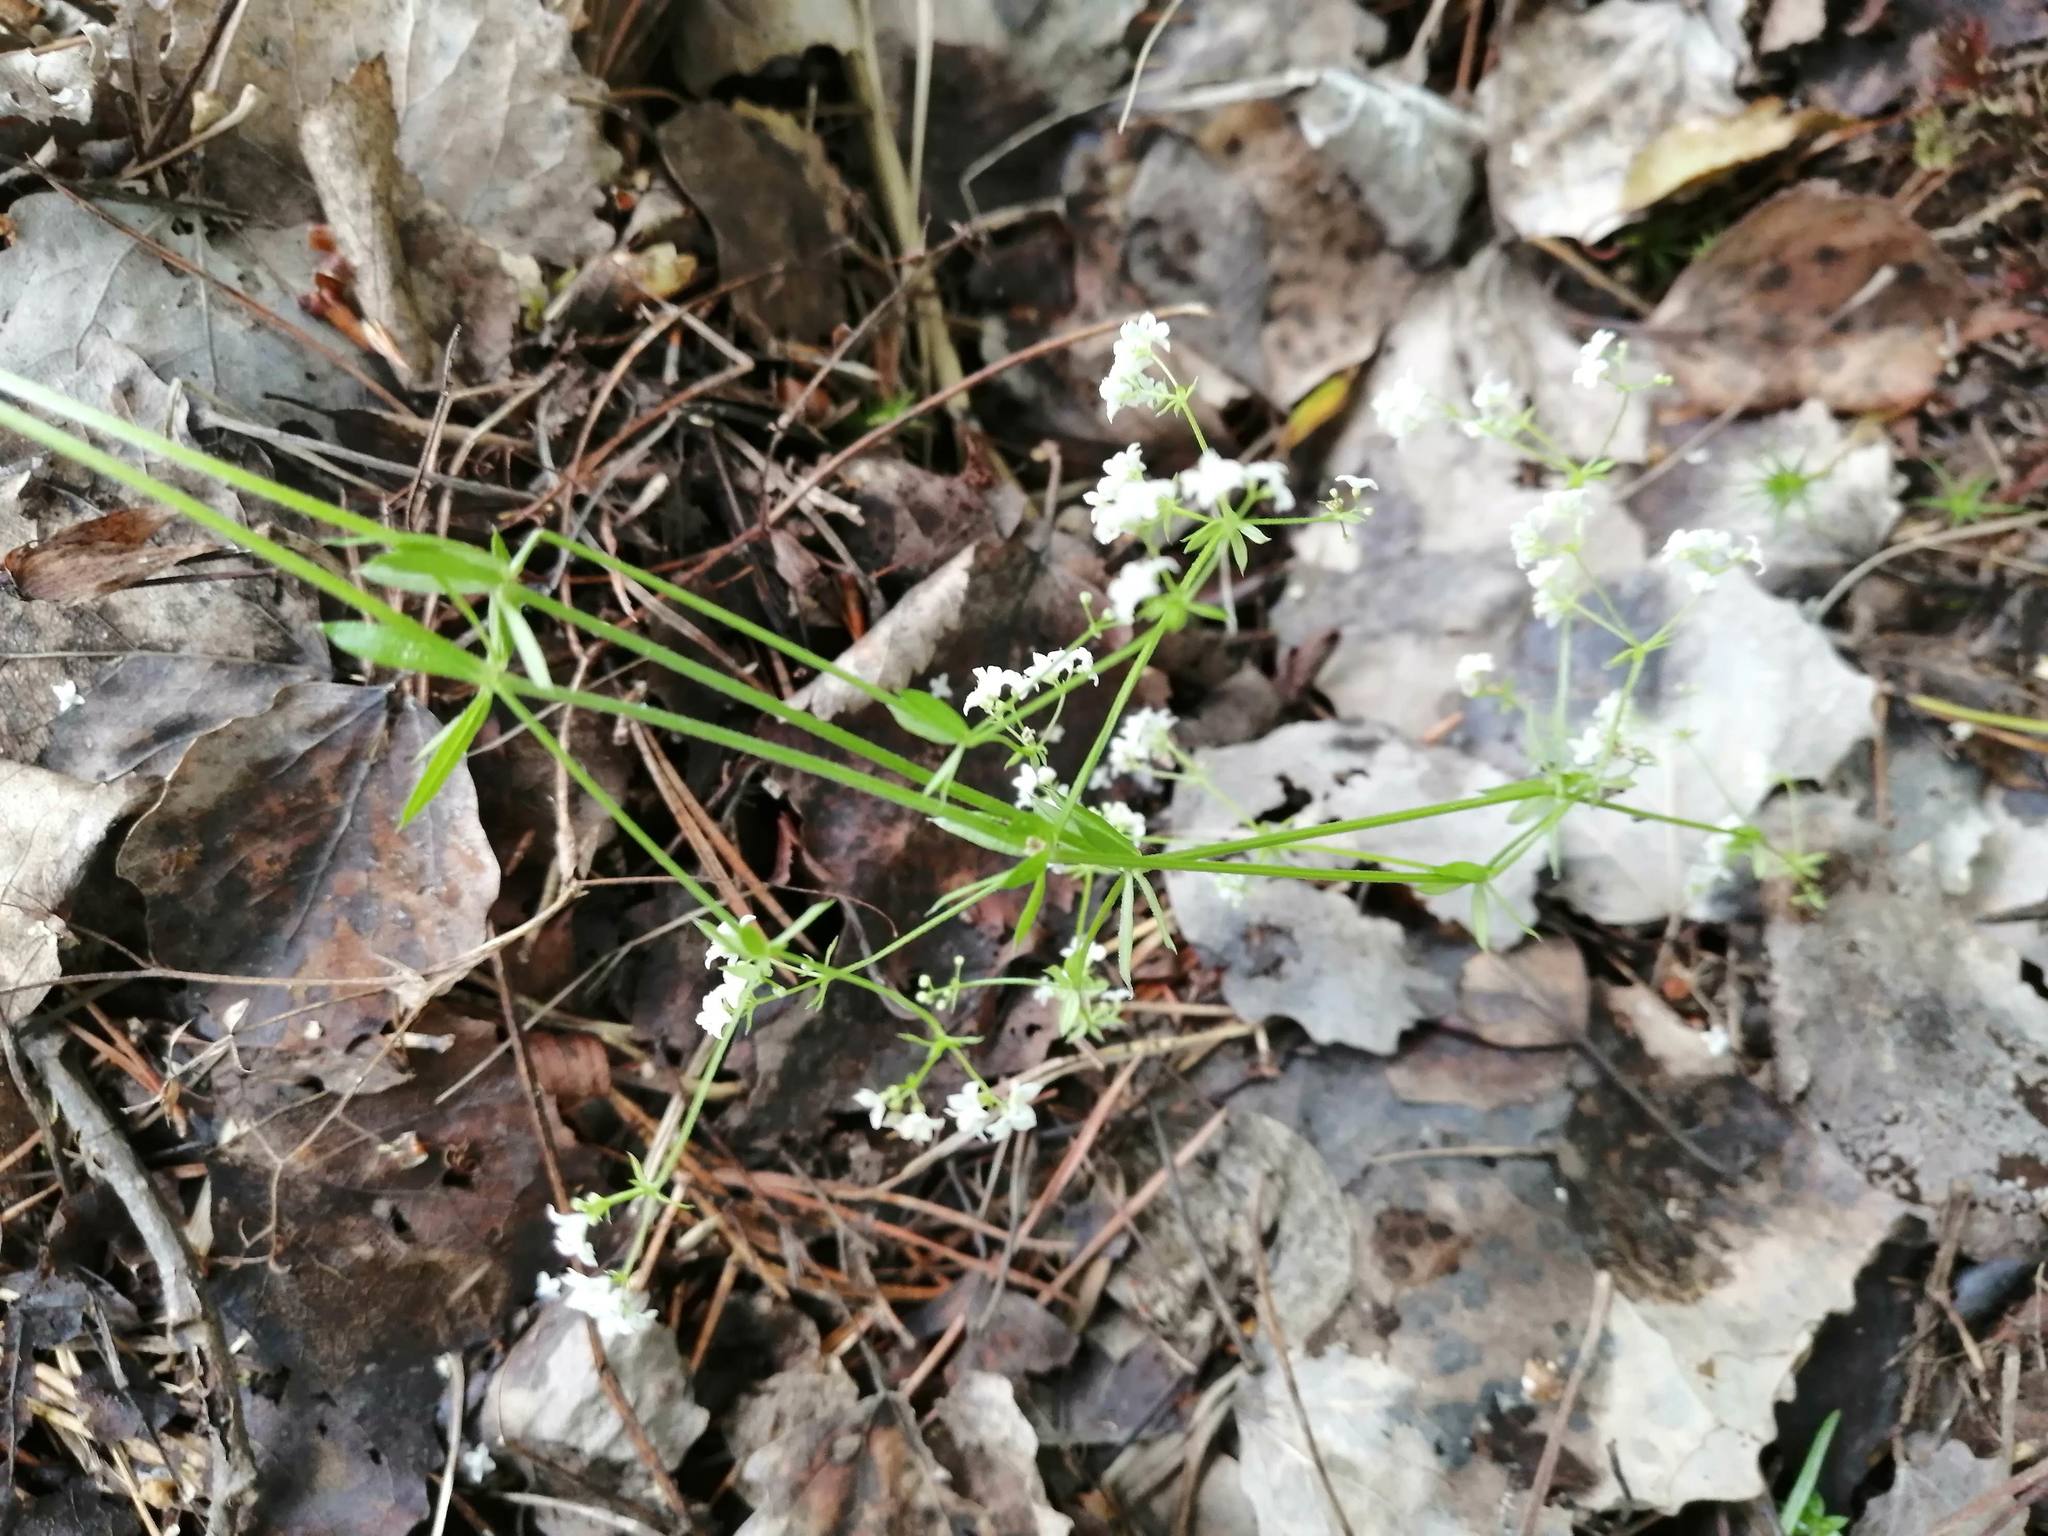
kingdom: Plantae
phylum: Tracheophyta
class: Magnoliopsida
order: Gentianales
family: Rubiaceae
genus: Galium
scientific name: Galium uliginosum
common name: Fen bedstraw
